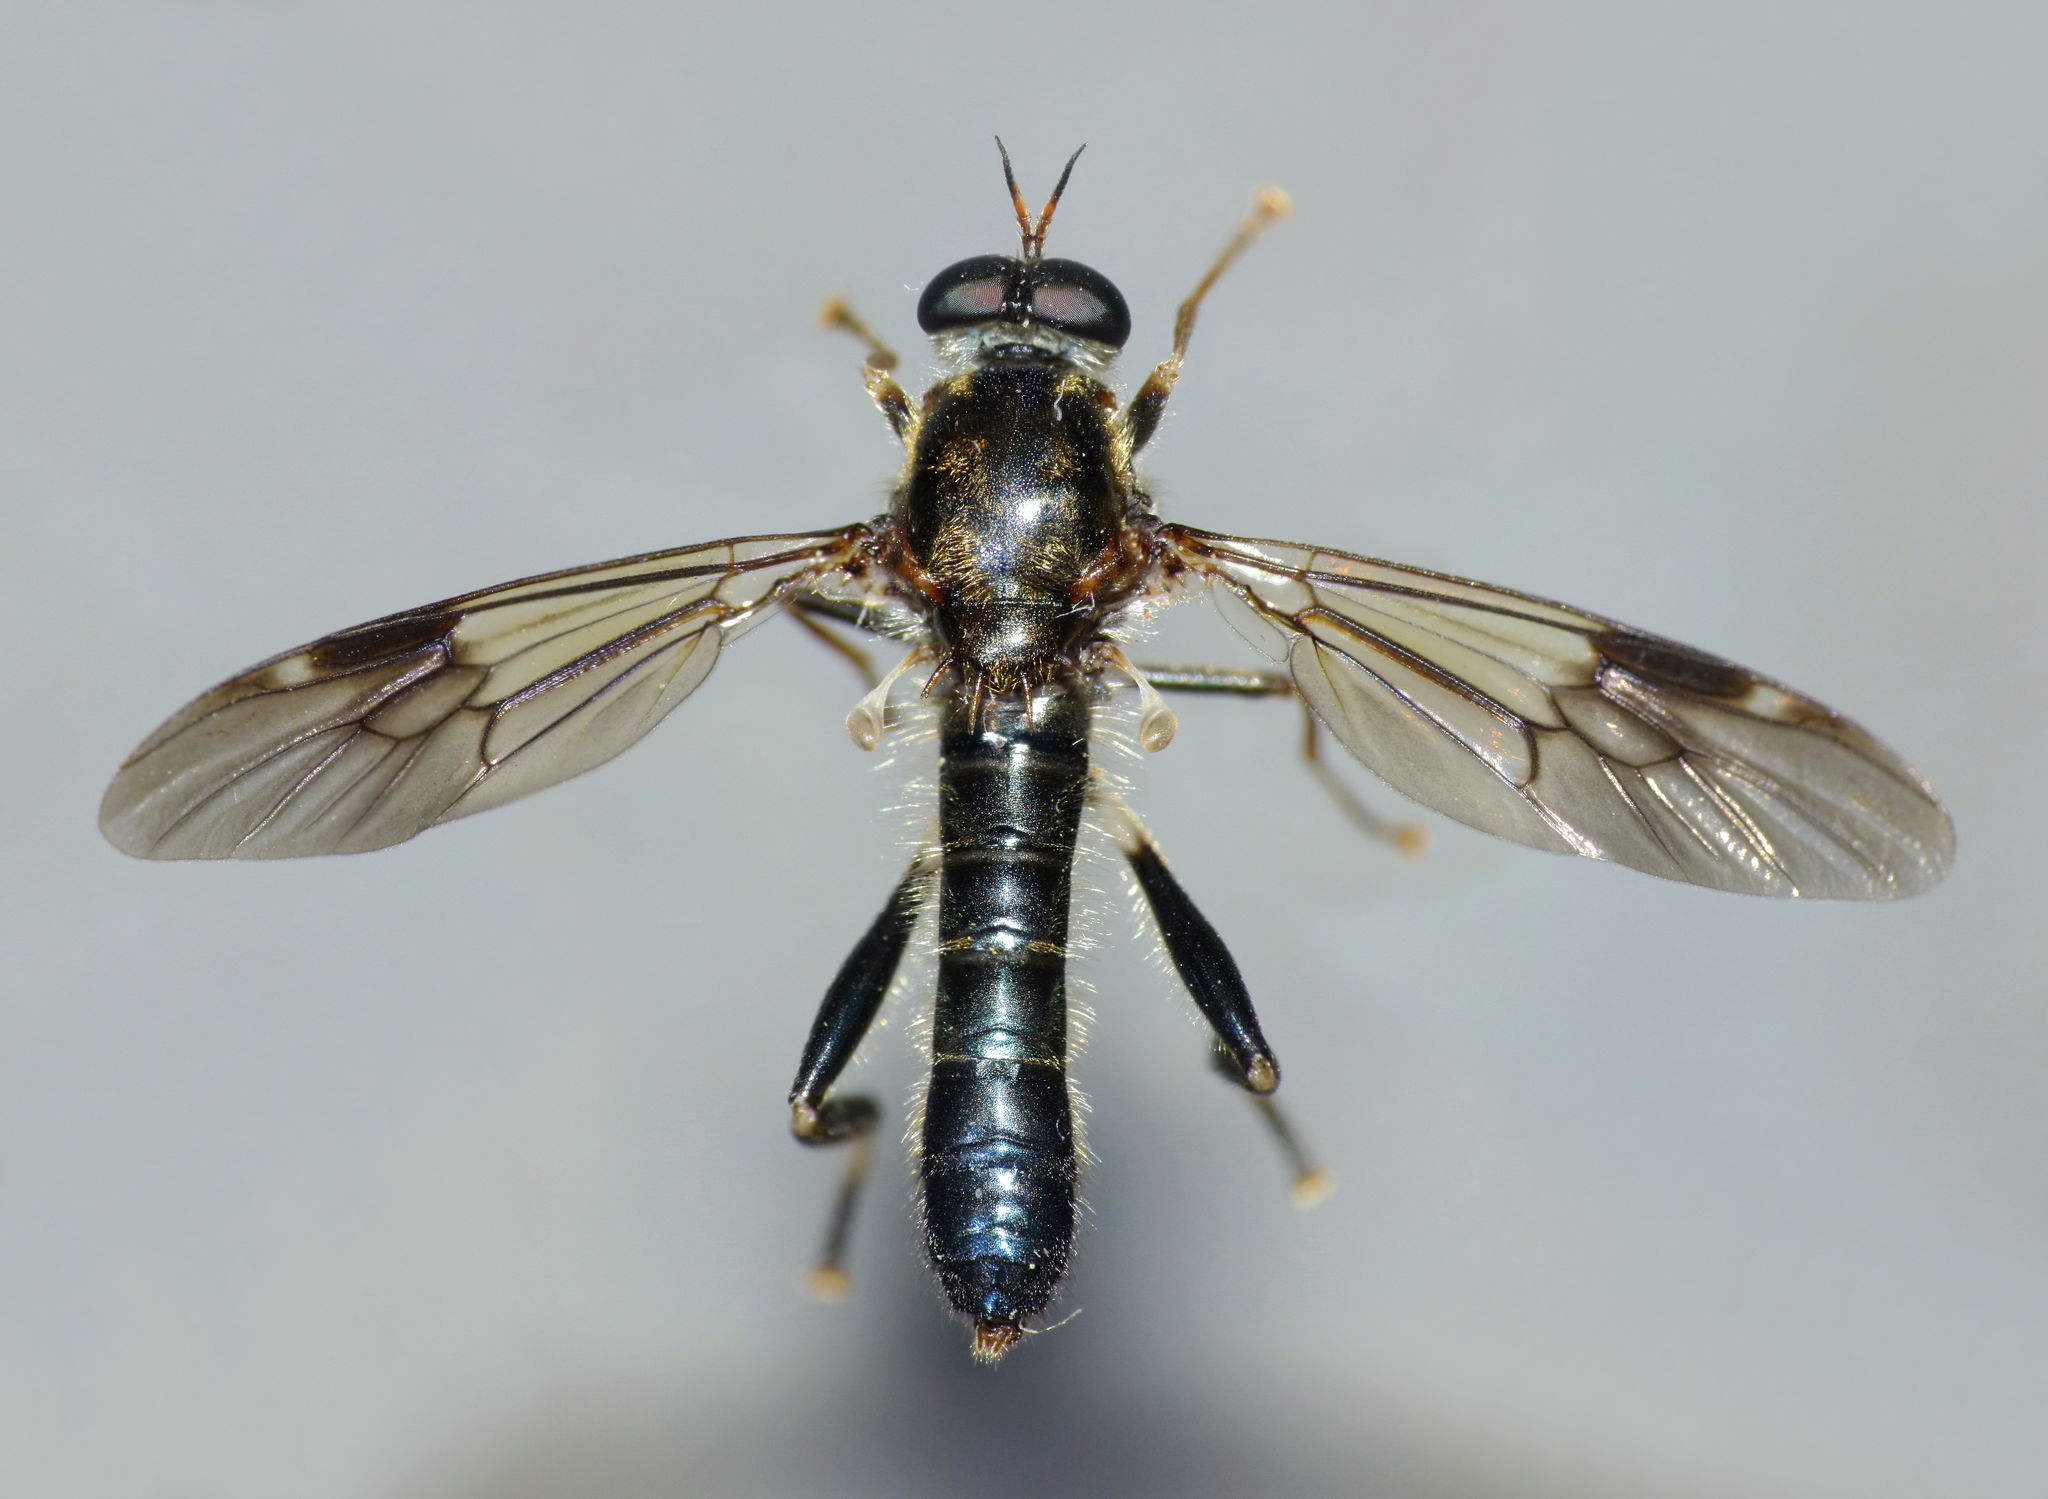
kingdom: Animalia
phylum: Arthropoda
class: Insecta
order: Diptera
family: Stratiomyidae
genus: Exaireta
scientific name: Exaireta spinigera
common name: Blue soldier fly
